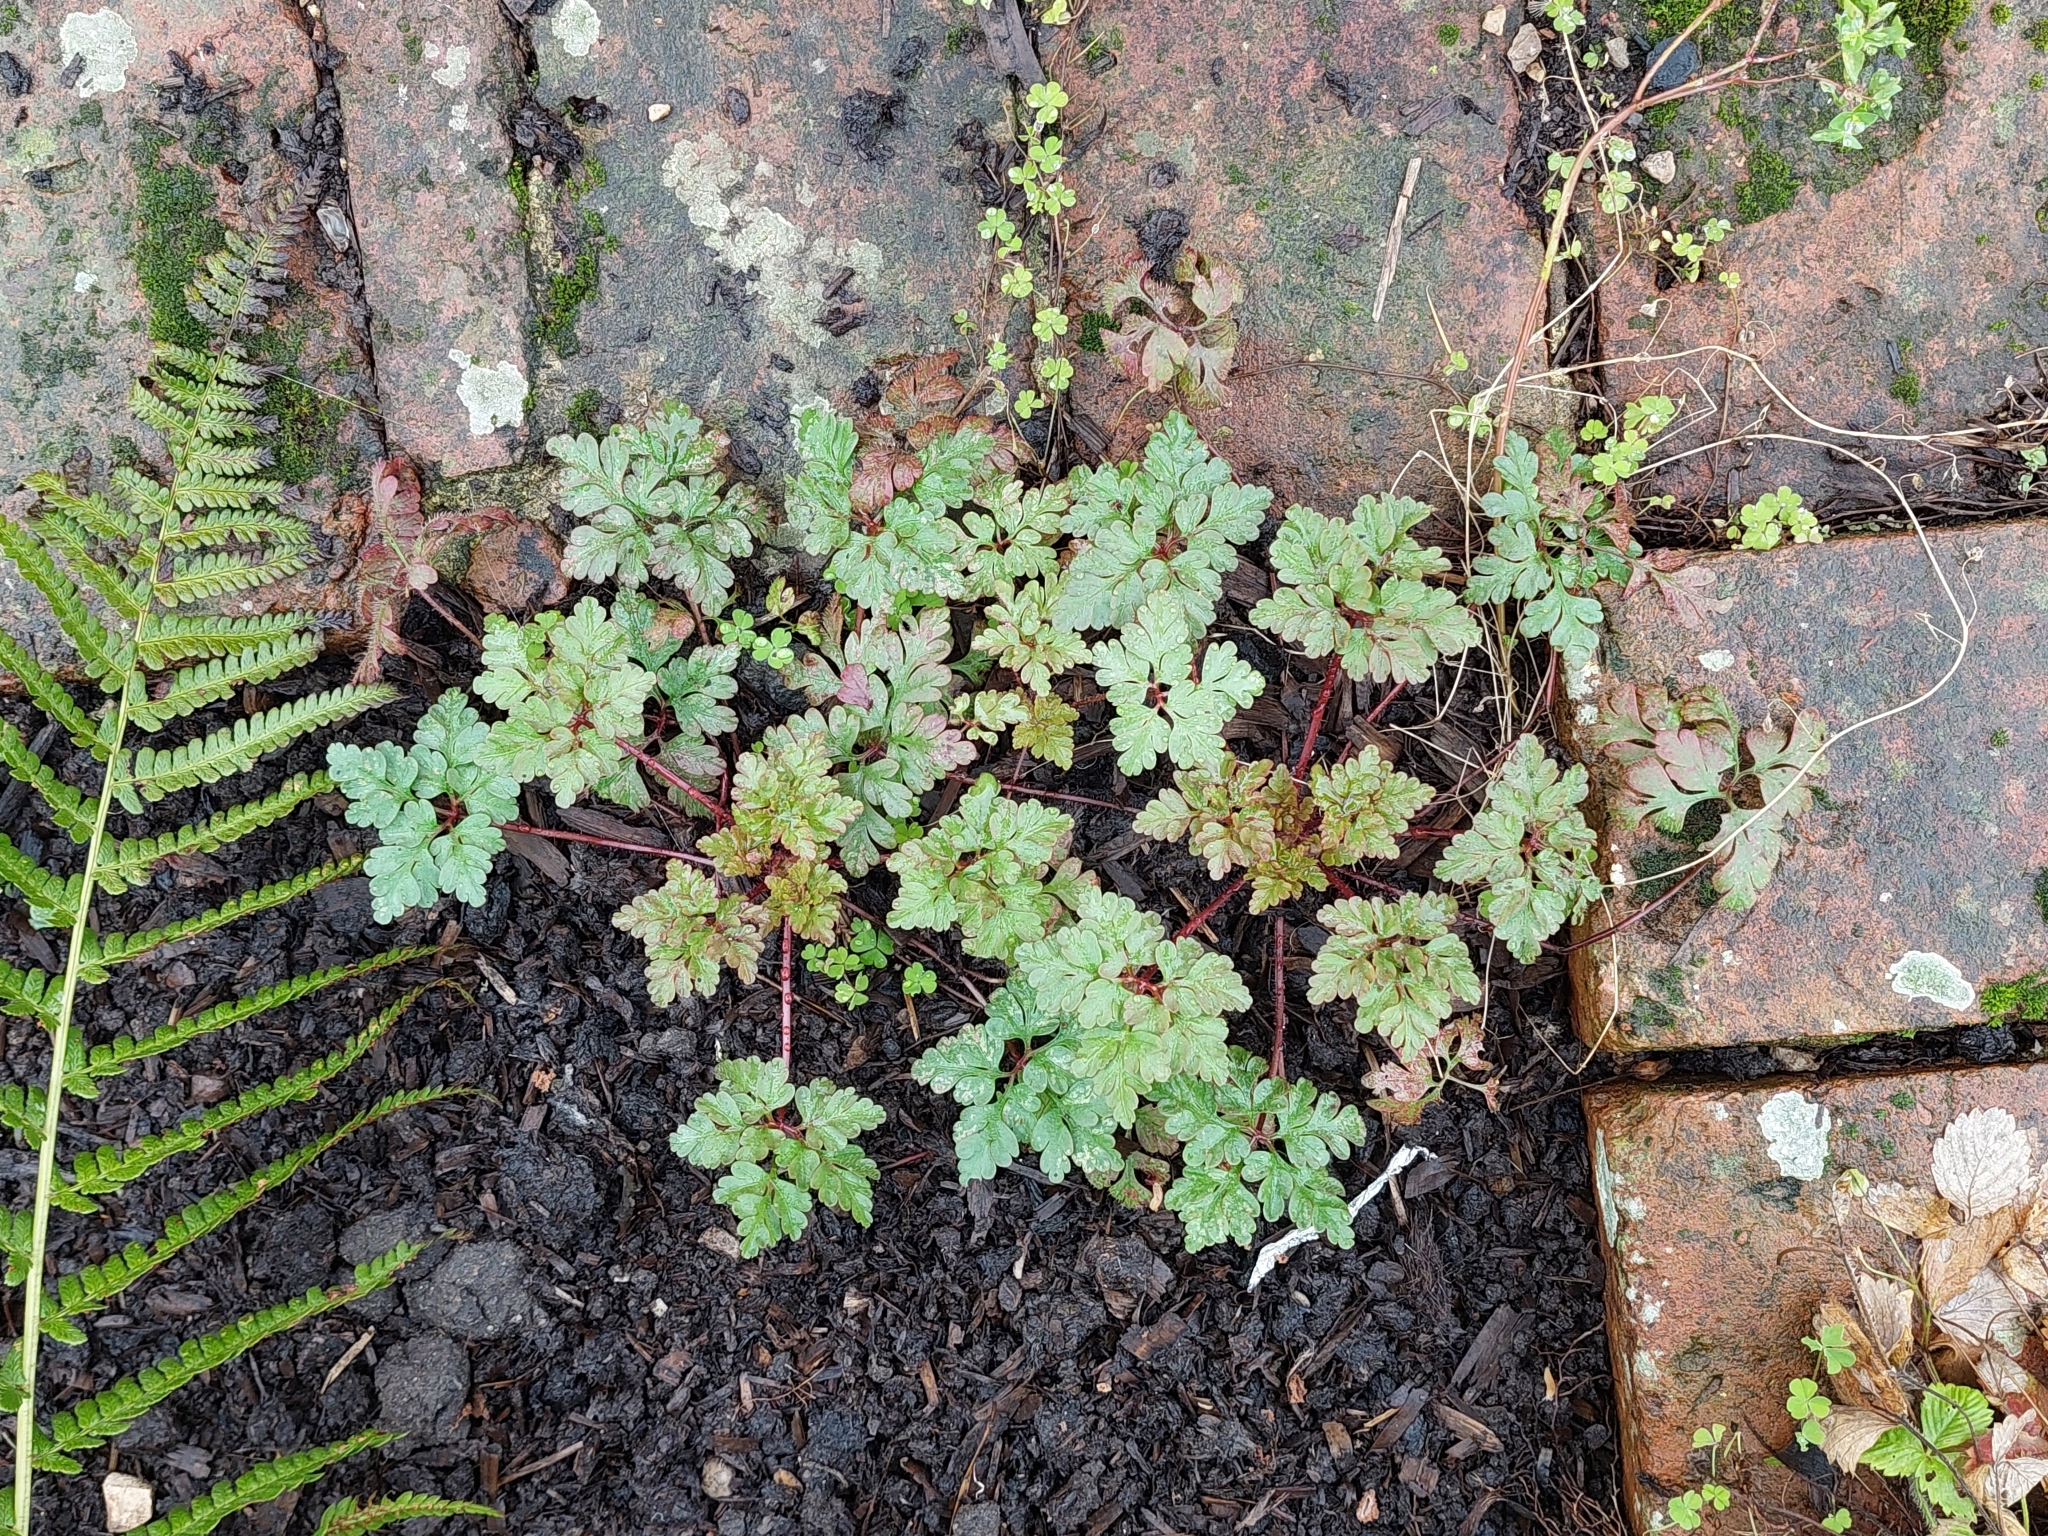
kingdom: Plantae
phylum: Tracheophyta
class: Magnoliopsida
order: Geraniales
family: Geraniaceae
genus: Geranium
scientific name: Geranium robertianum
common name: Herb-robert
